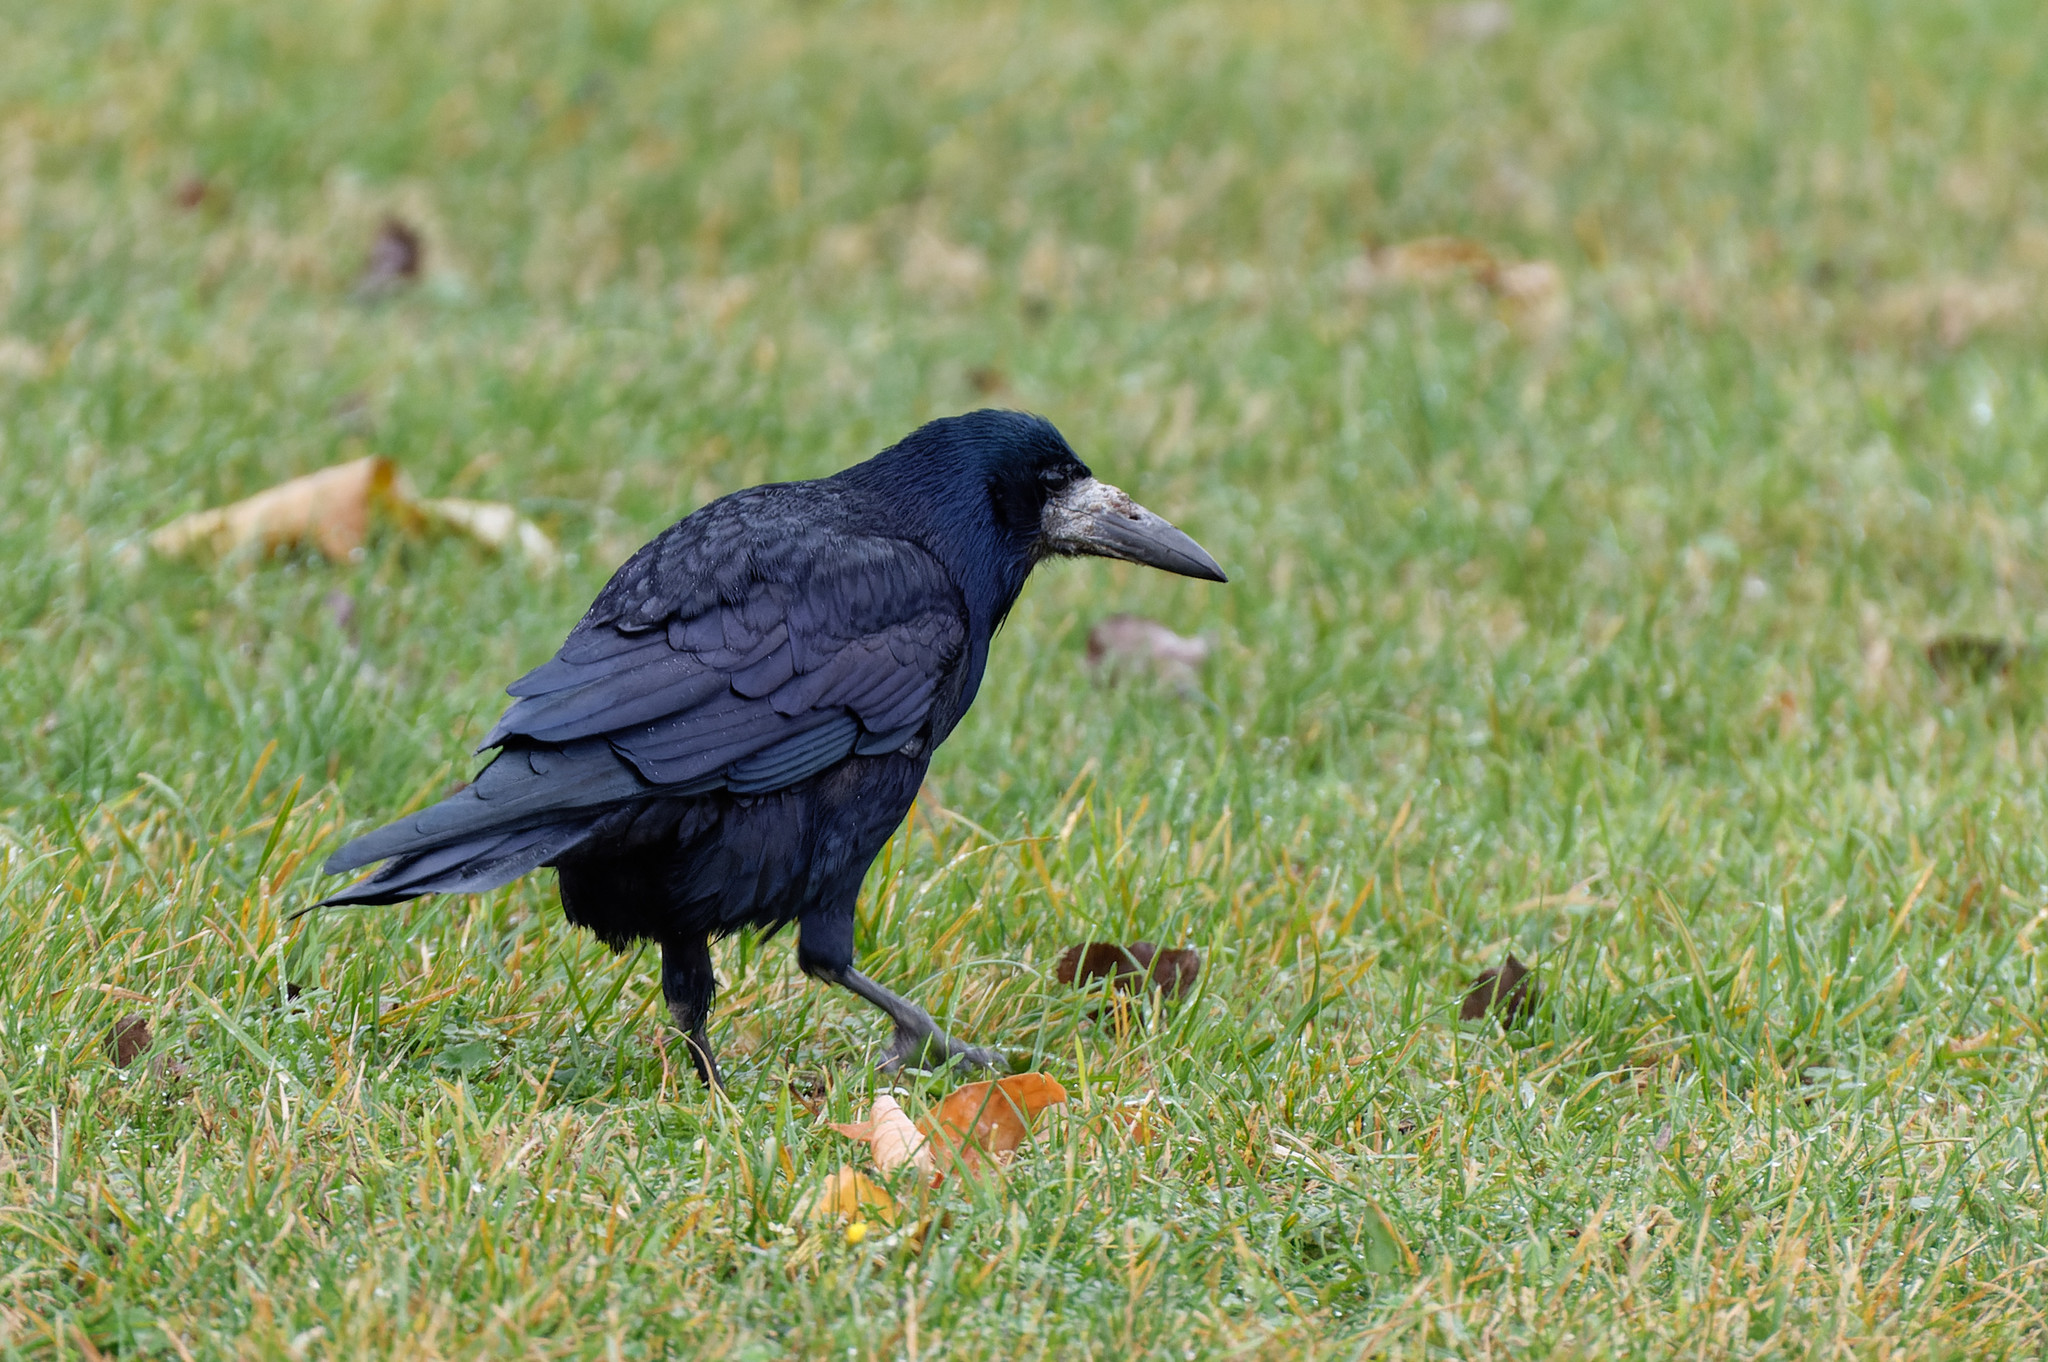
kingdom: Animalia
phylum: Chordata
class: Aves
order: Passeriformes
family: Corvidae
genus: Corvus
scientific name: Corvus frugilegus
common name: Rook
